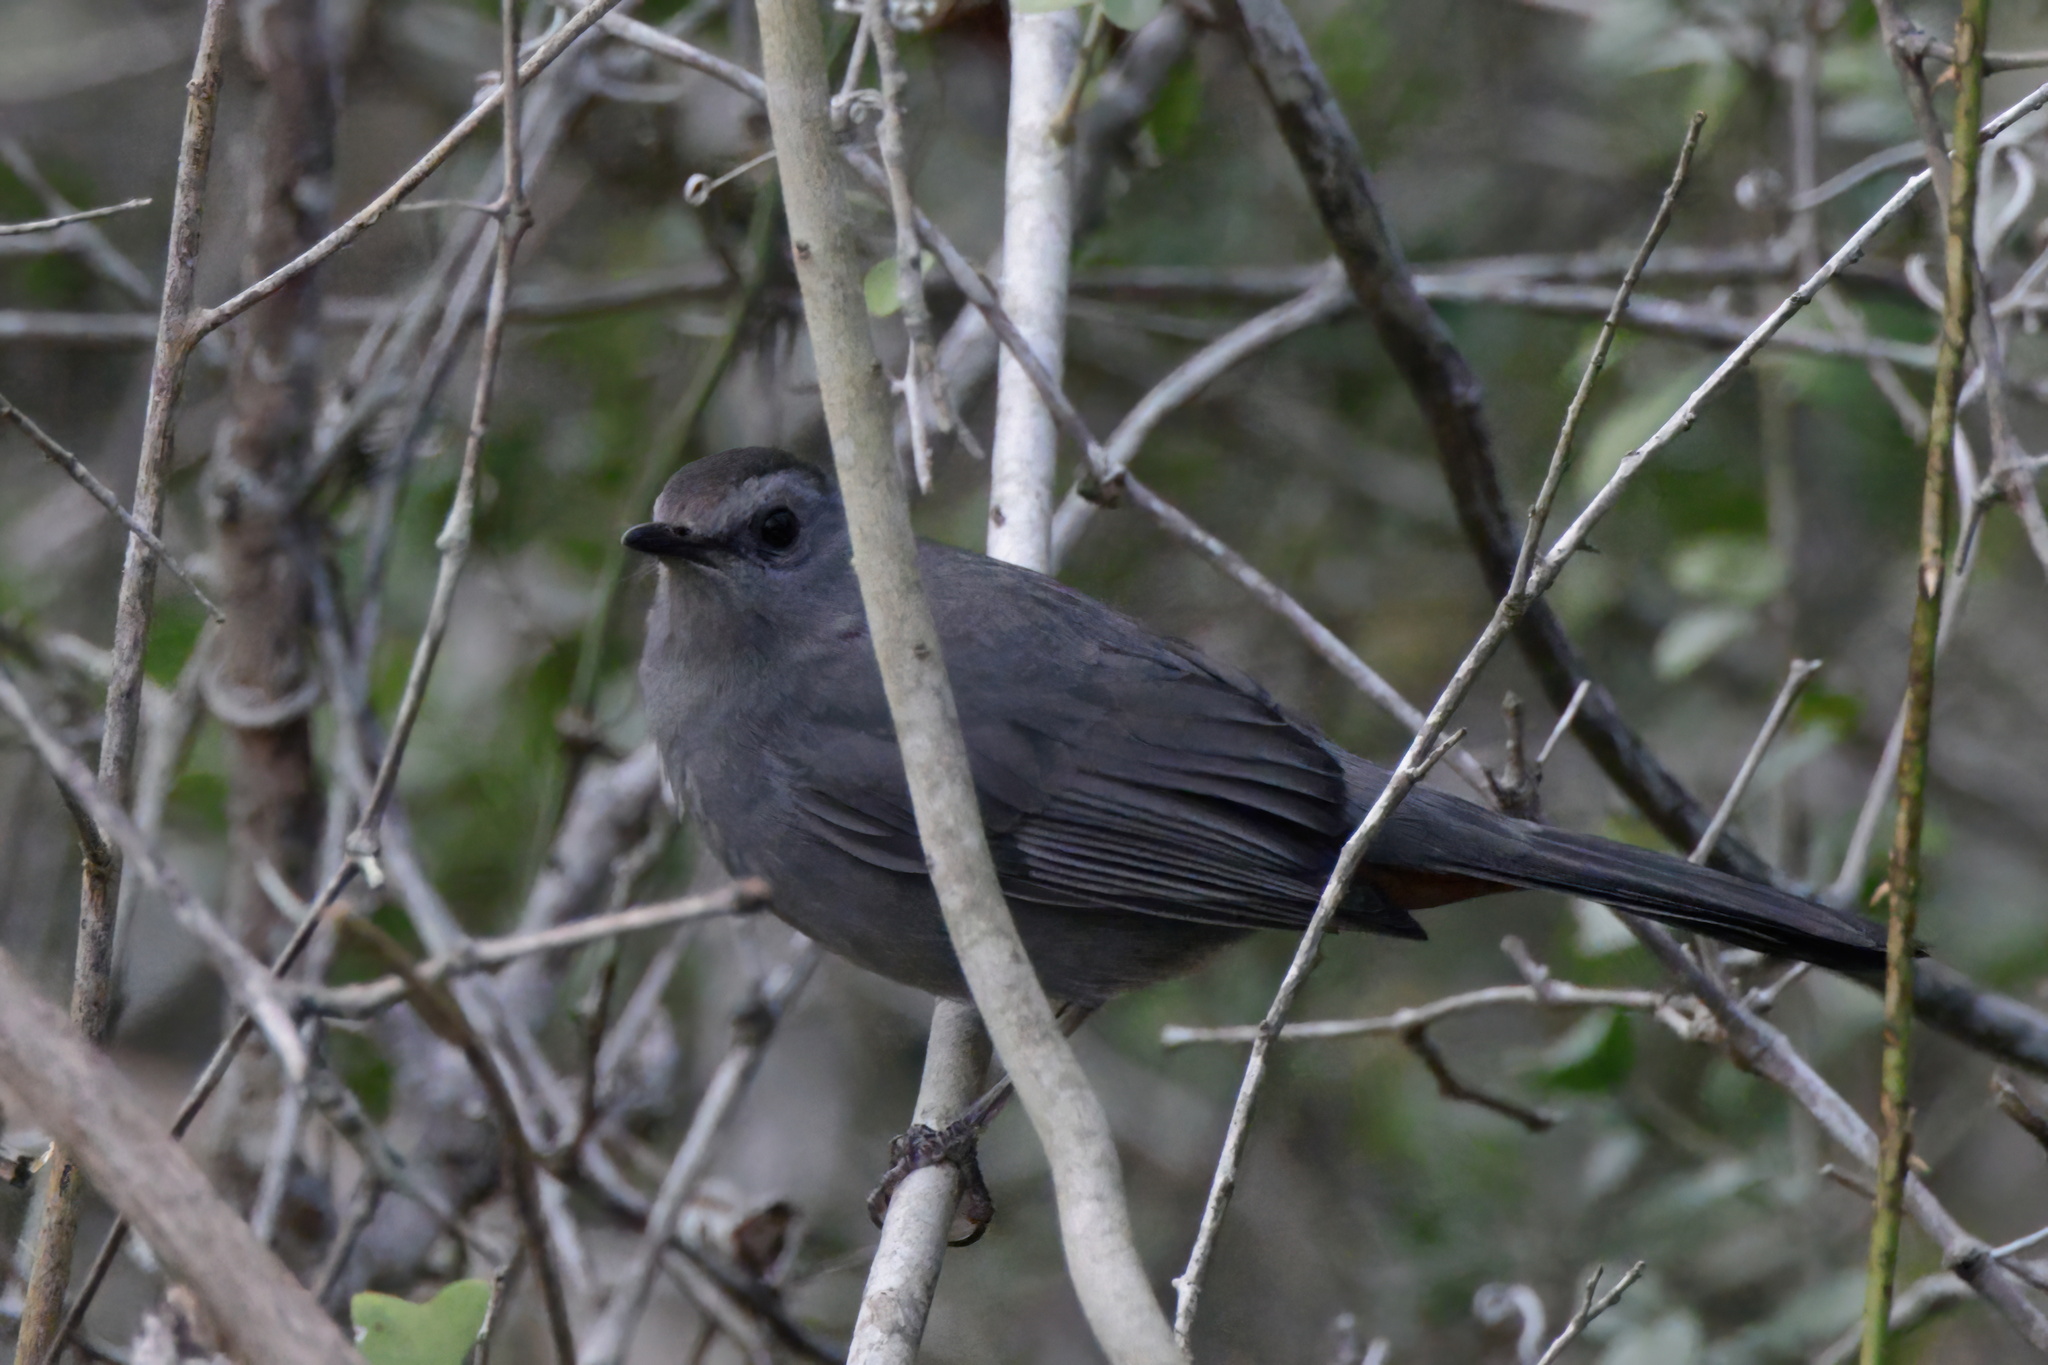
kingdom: Animalia
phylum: Chordata
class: Aves
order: Passeriformes
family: Mimidae
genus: Dumetella
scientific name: Dumetella carolinensis
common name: Gray catbird
